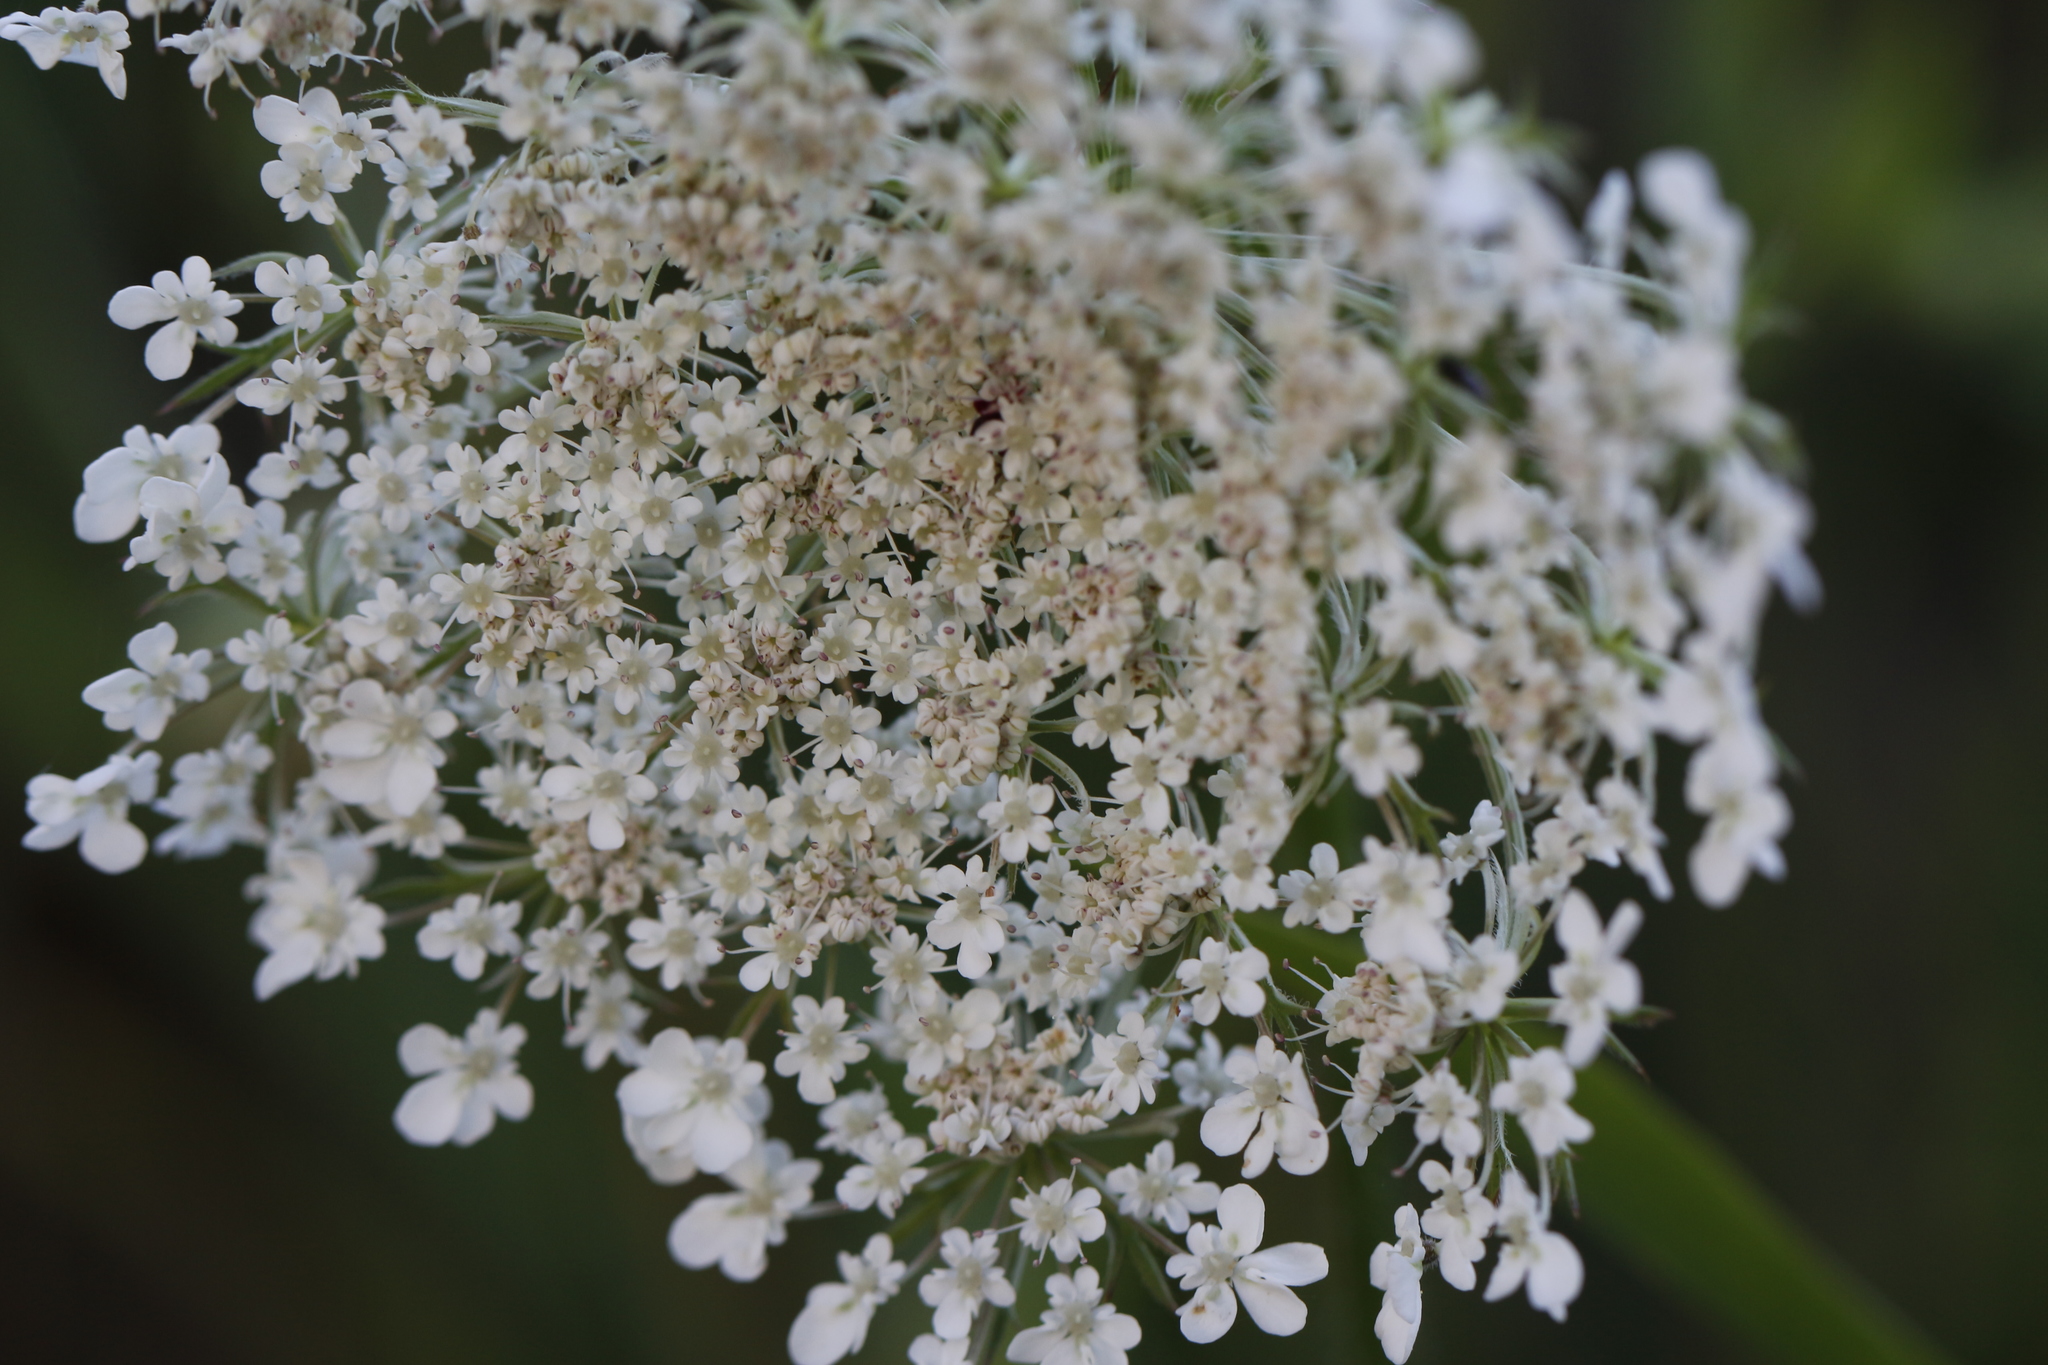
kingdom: Plantae
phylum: Tracheophyta
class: Magnoliopsida
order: Apiales
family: Apiaceae
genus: Daucus
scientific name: Daucus carota
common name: Wild carrot
